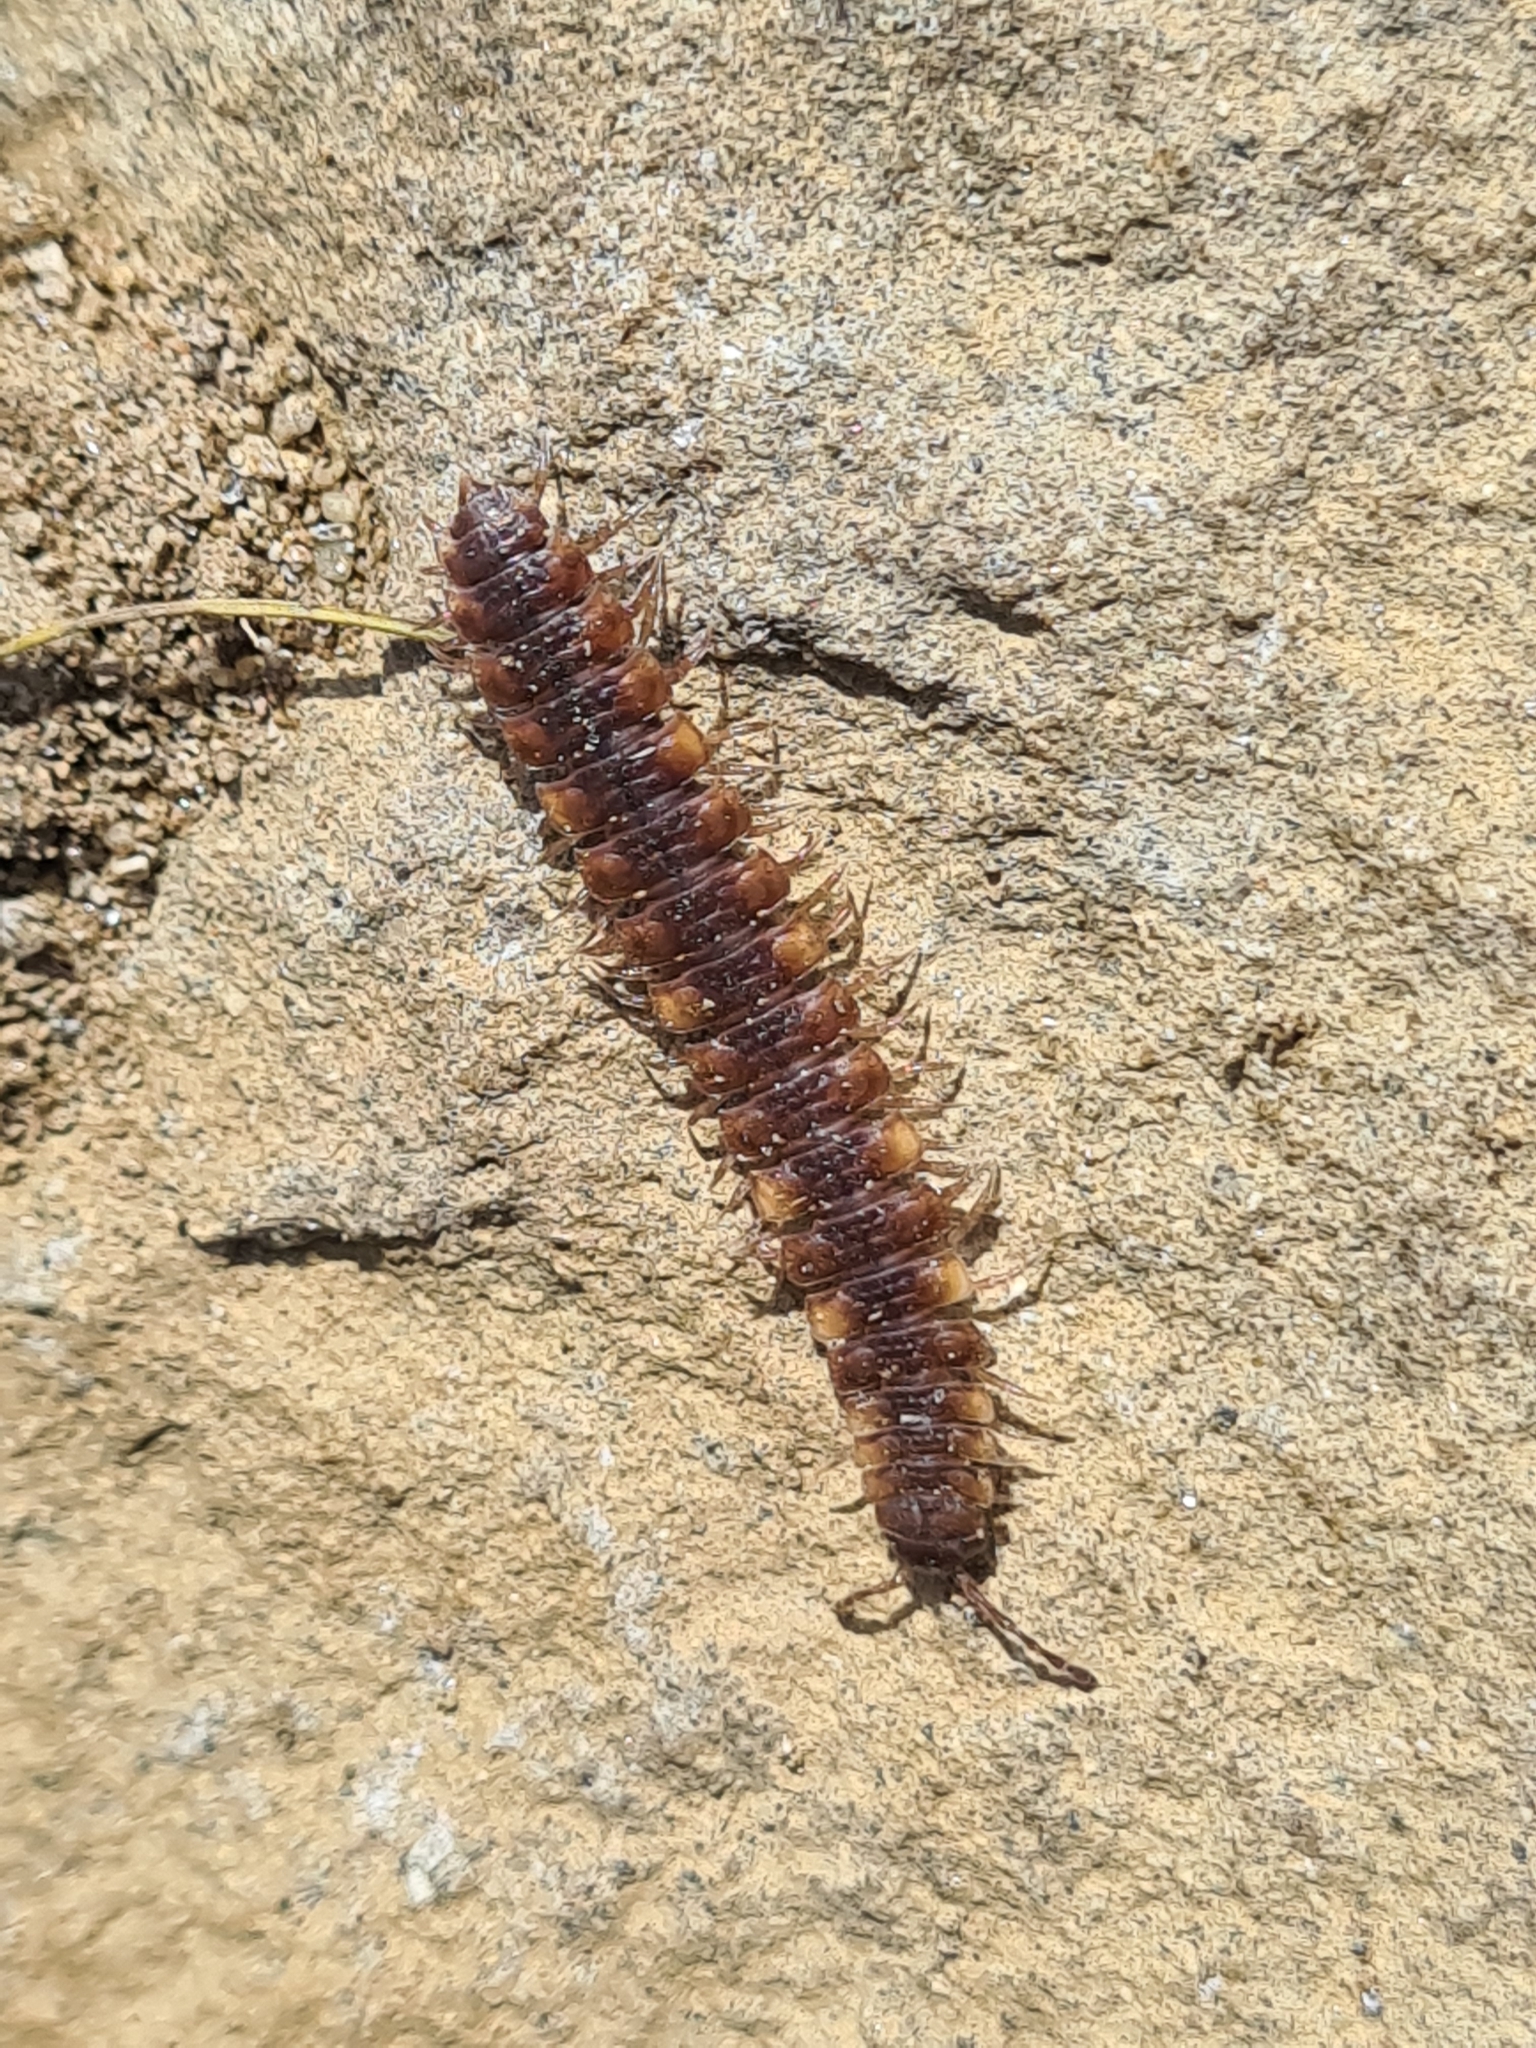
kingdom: Animalia
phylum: Arthropoda
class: Diplopoda
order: Polydesmida
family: Polydesmidae
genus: Polydesmus
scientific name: Polydesmus complanatus
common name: Flat-backed millipede
